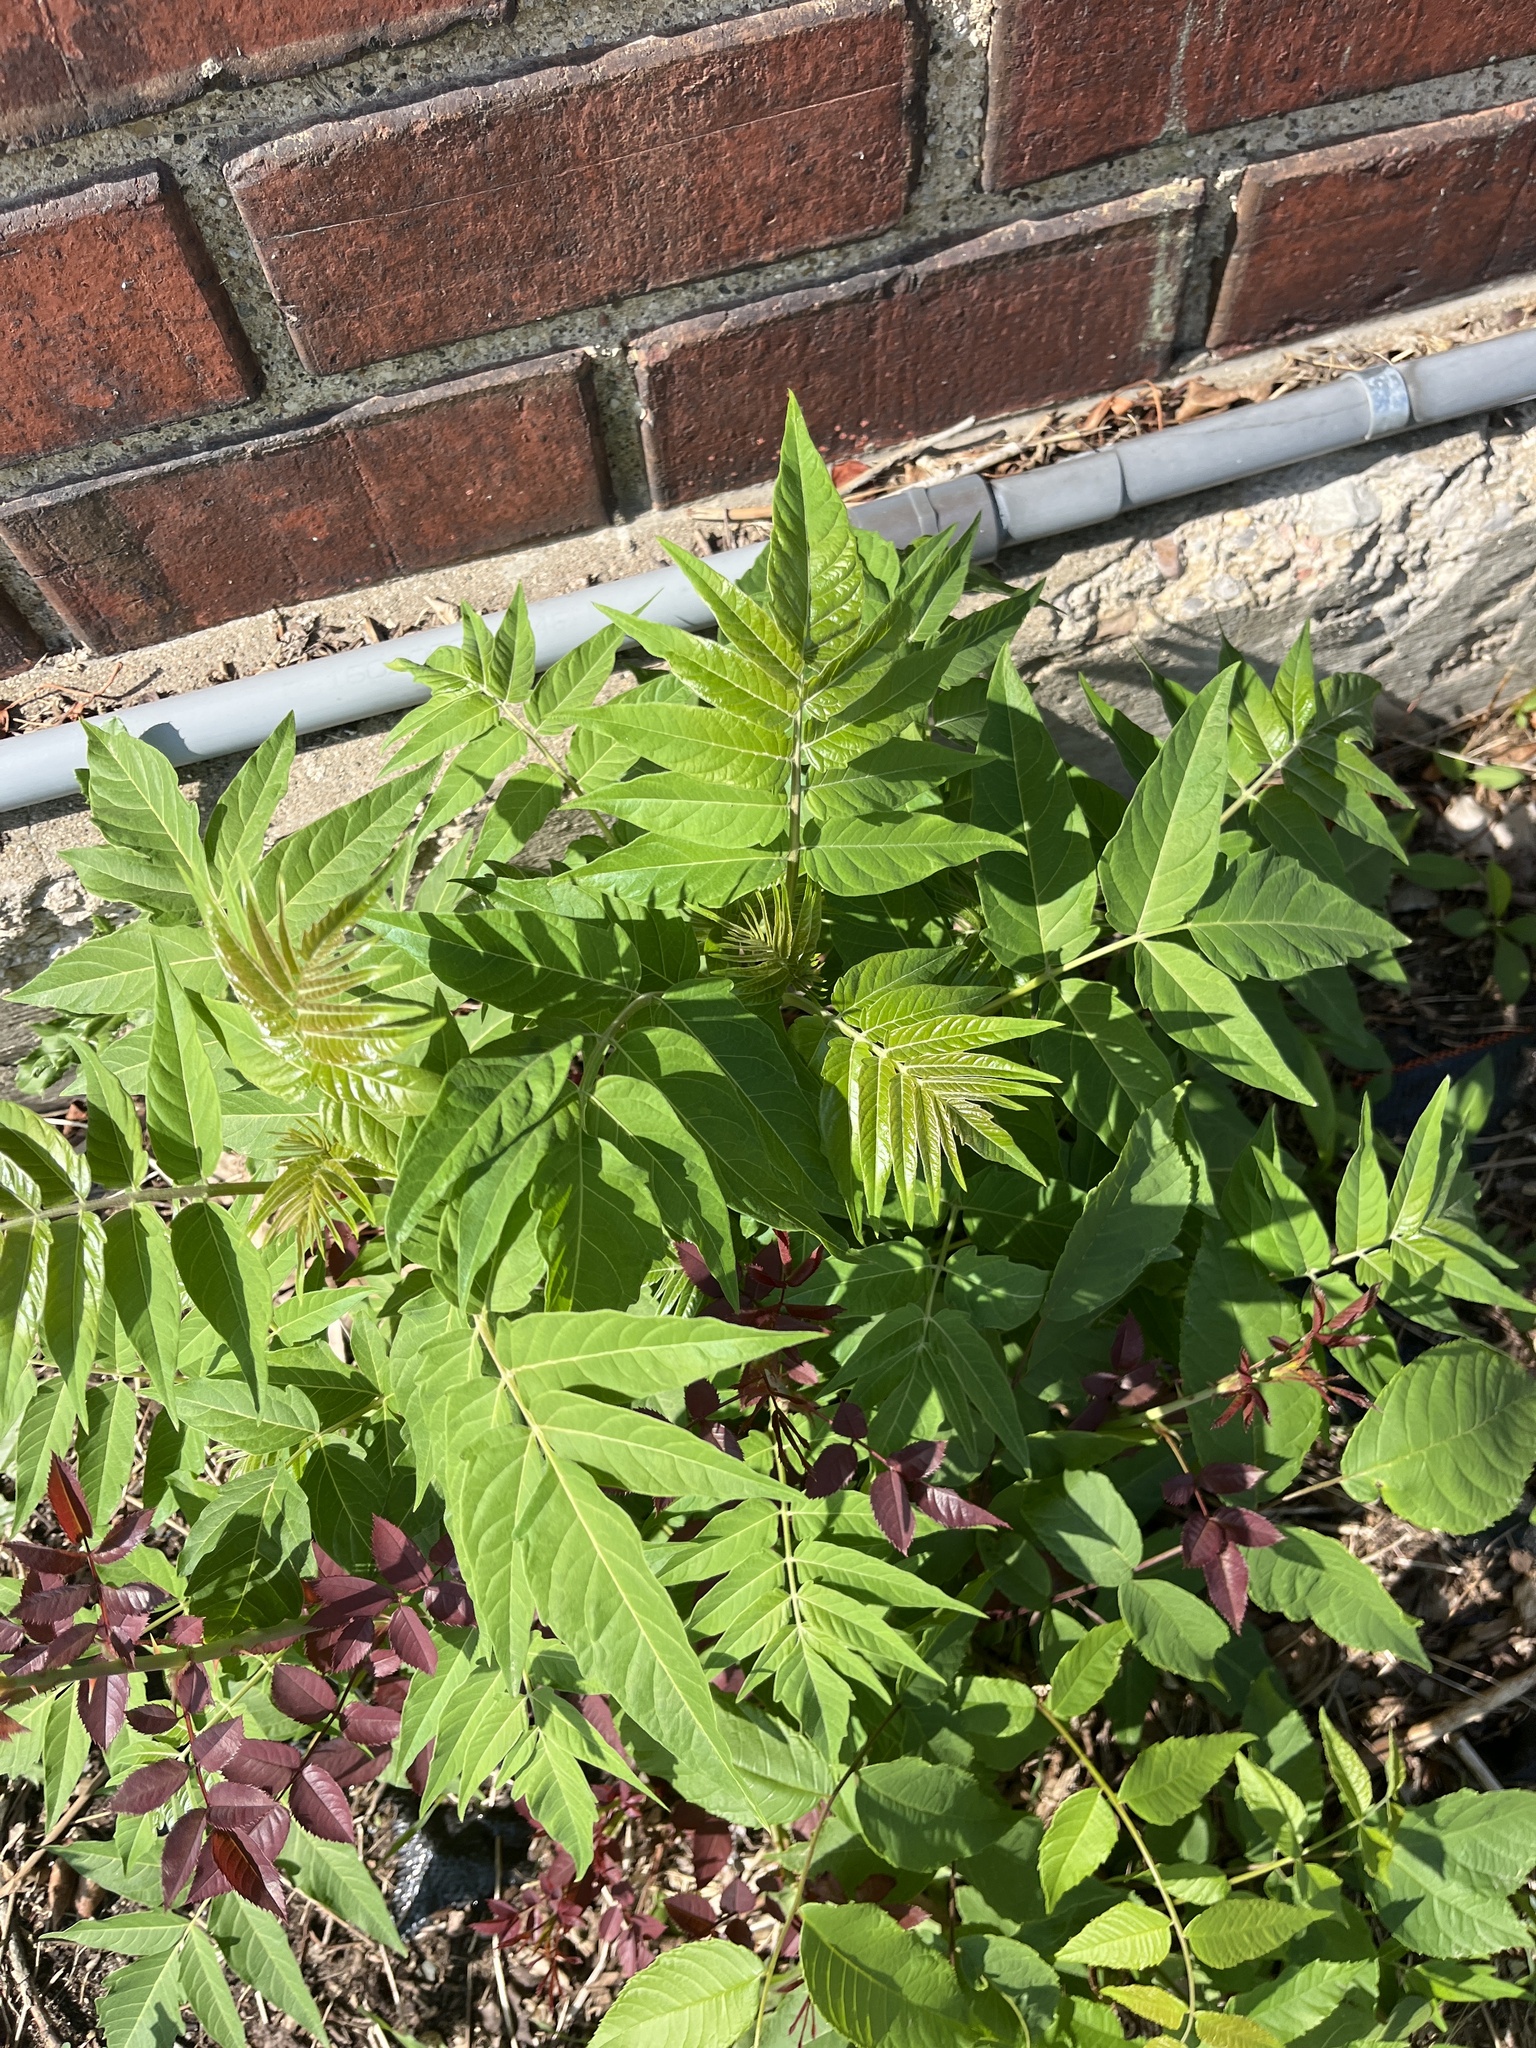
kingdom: Plantae
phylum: Tracheophyta
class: Magnoliopsida
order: Sapindales
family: Simaroubaceae
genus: Ailanthus
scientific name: Ailanthus altissima
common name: Tree-of-heaven
